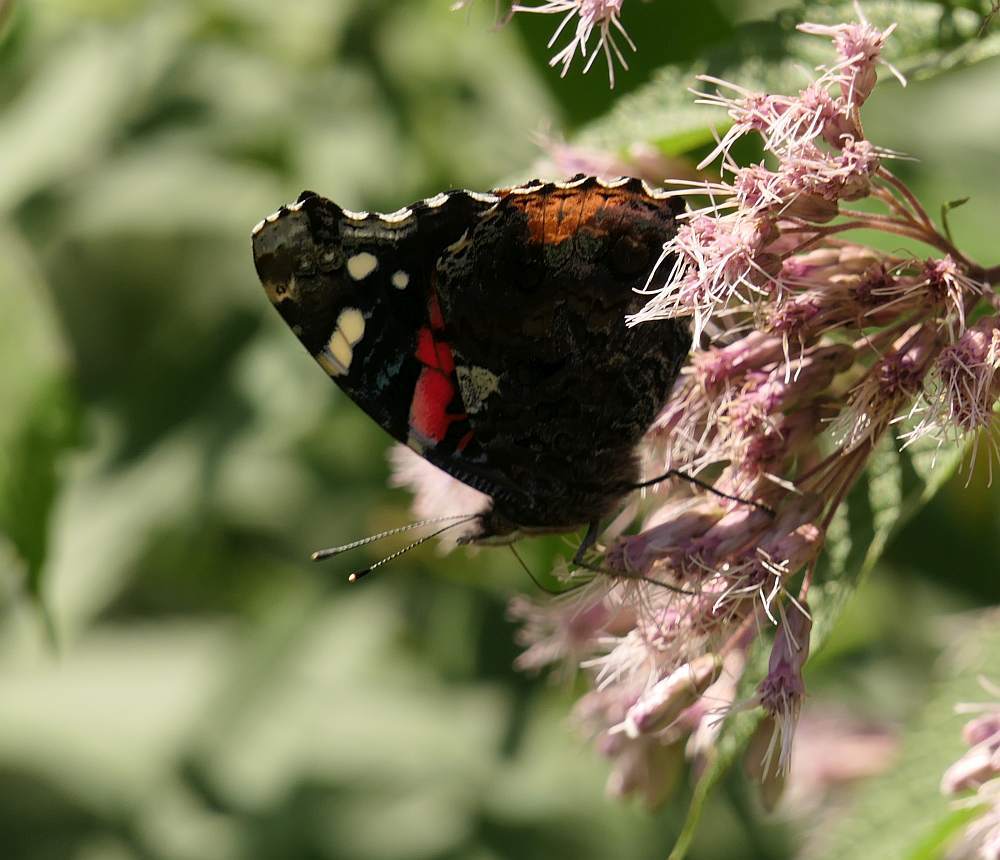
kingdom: Animalia
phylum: Arthropoda
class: Insecta
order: Lepidoptera
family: Nymphalidae
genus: Vanessa
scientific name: Vanessa atalanta
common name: Red admiral
